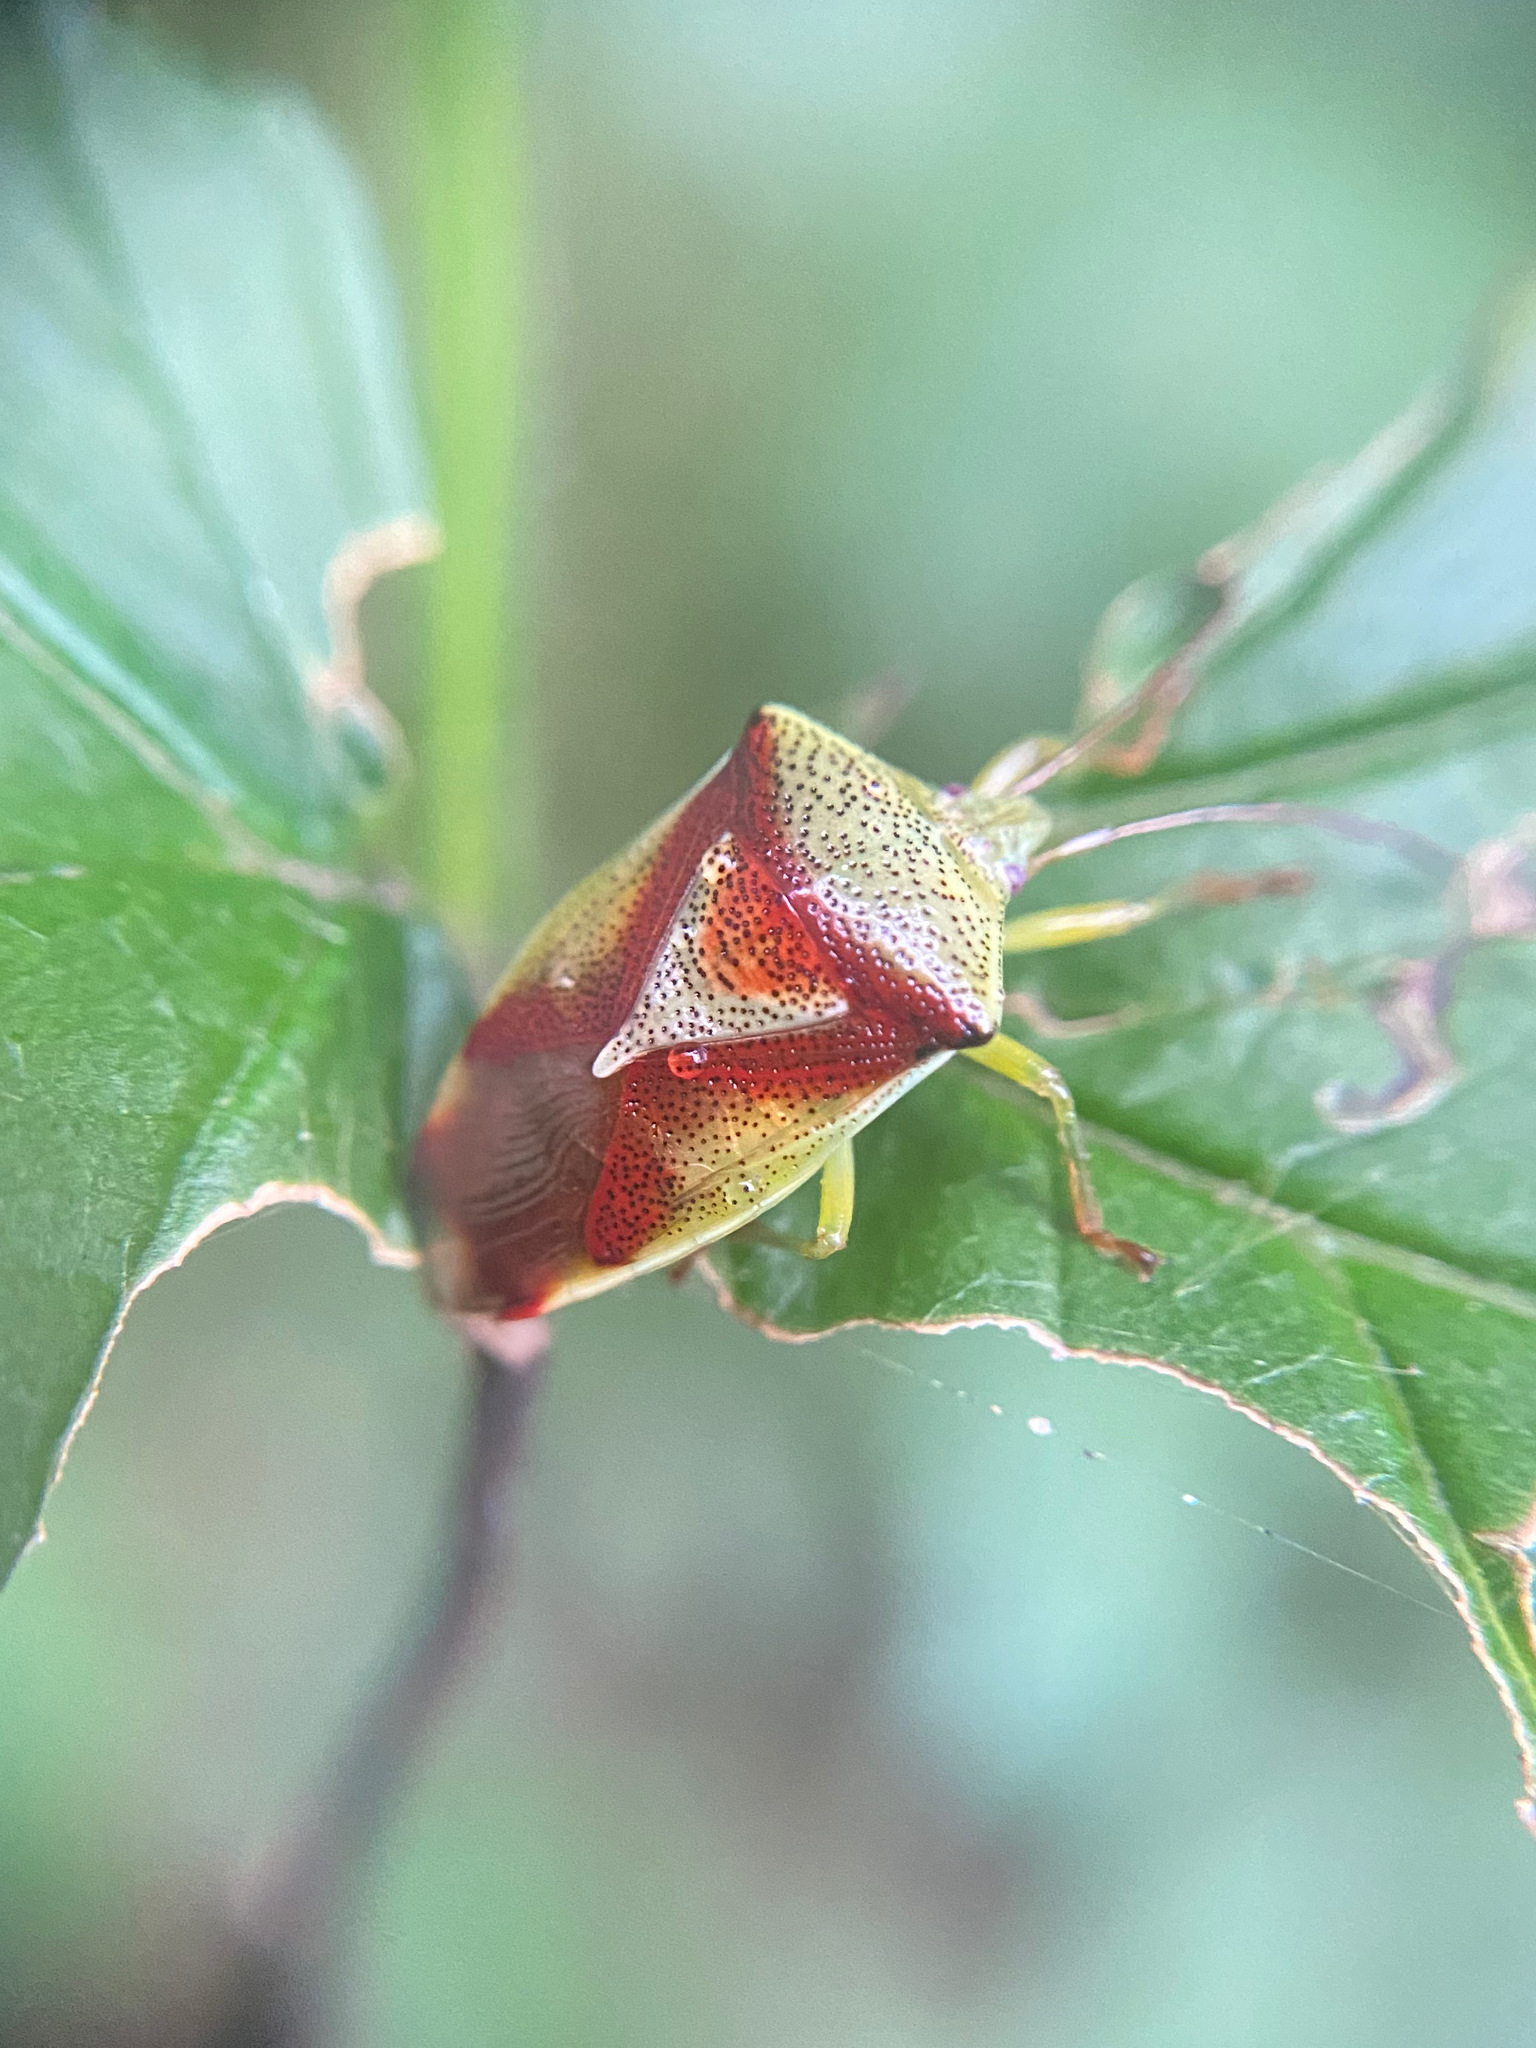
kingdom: Animalia
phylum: Arthropoda
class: Insecta
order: Hemiptera
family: Acanthosomatidae
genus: Elasmostethus
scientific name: Elasmostethus cruciatus
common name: Red-cross shield bug
